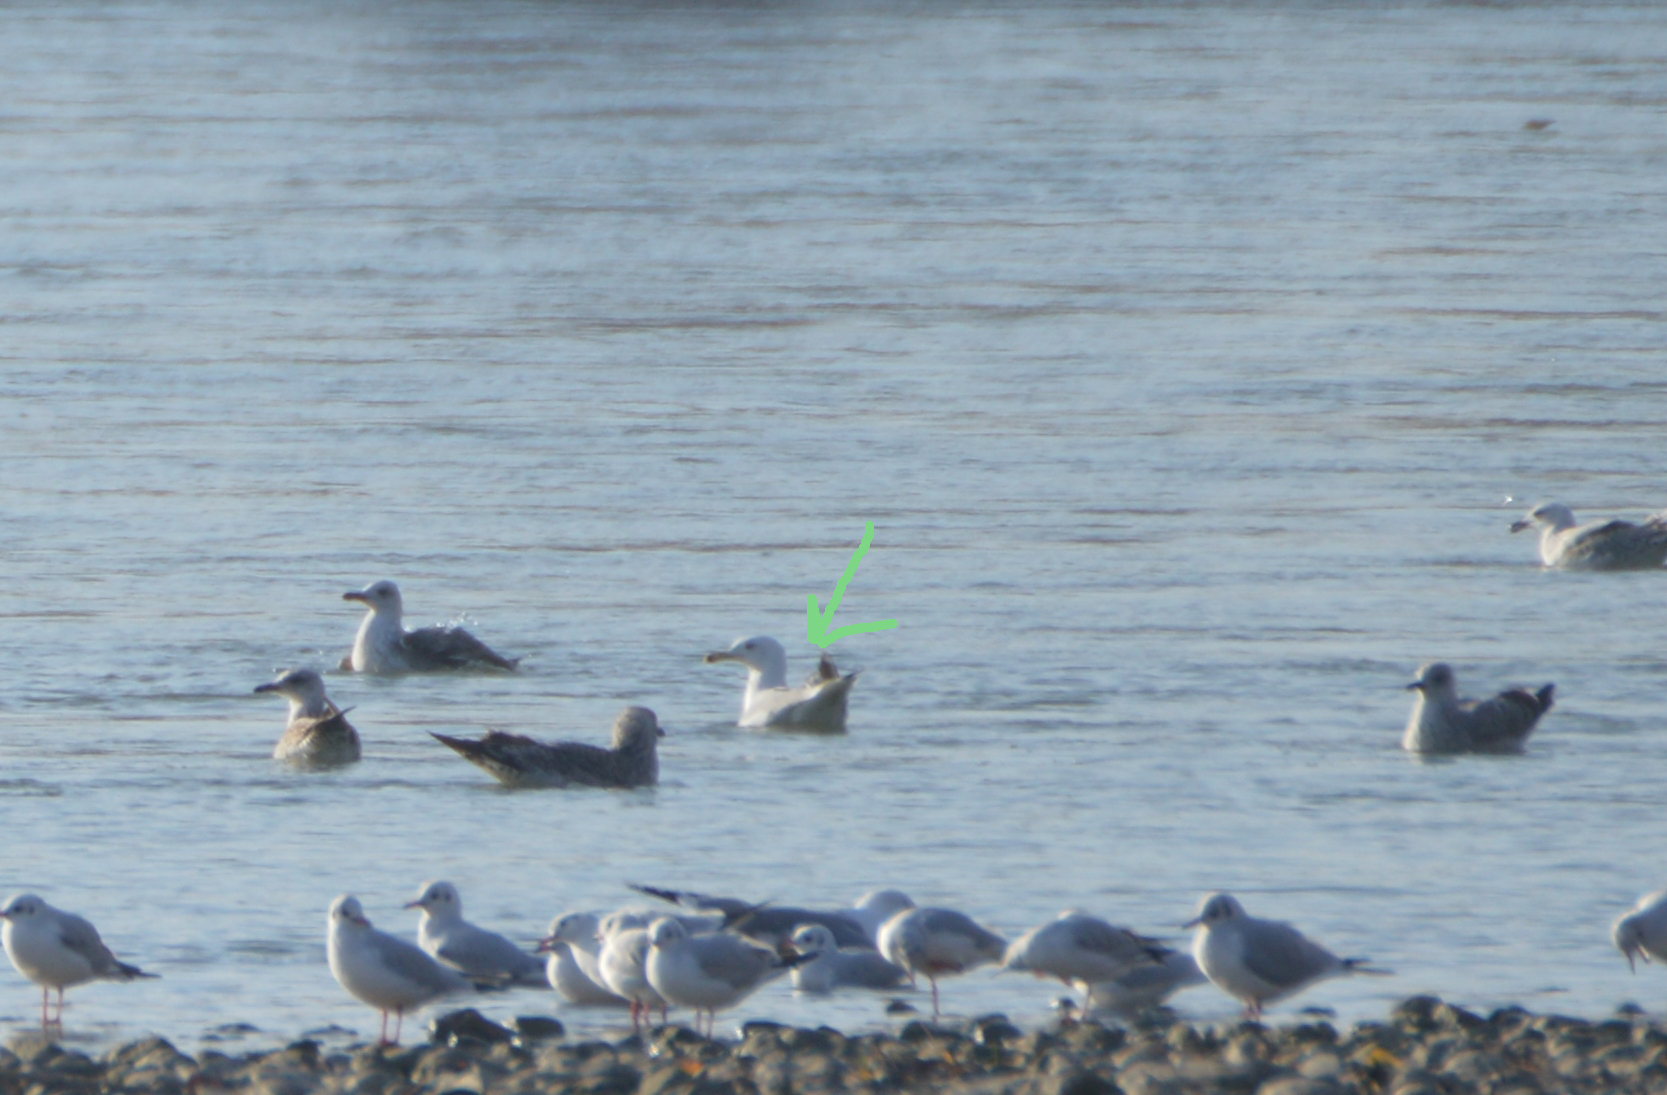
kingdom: Animalia
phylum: Chordata
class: Aves
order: Charadriiformes
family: Laridae
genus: Larus
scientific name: Larus cachinnans
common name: Caspian gull
